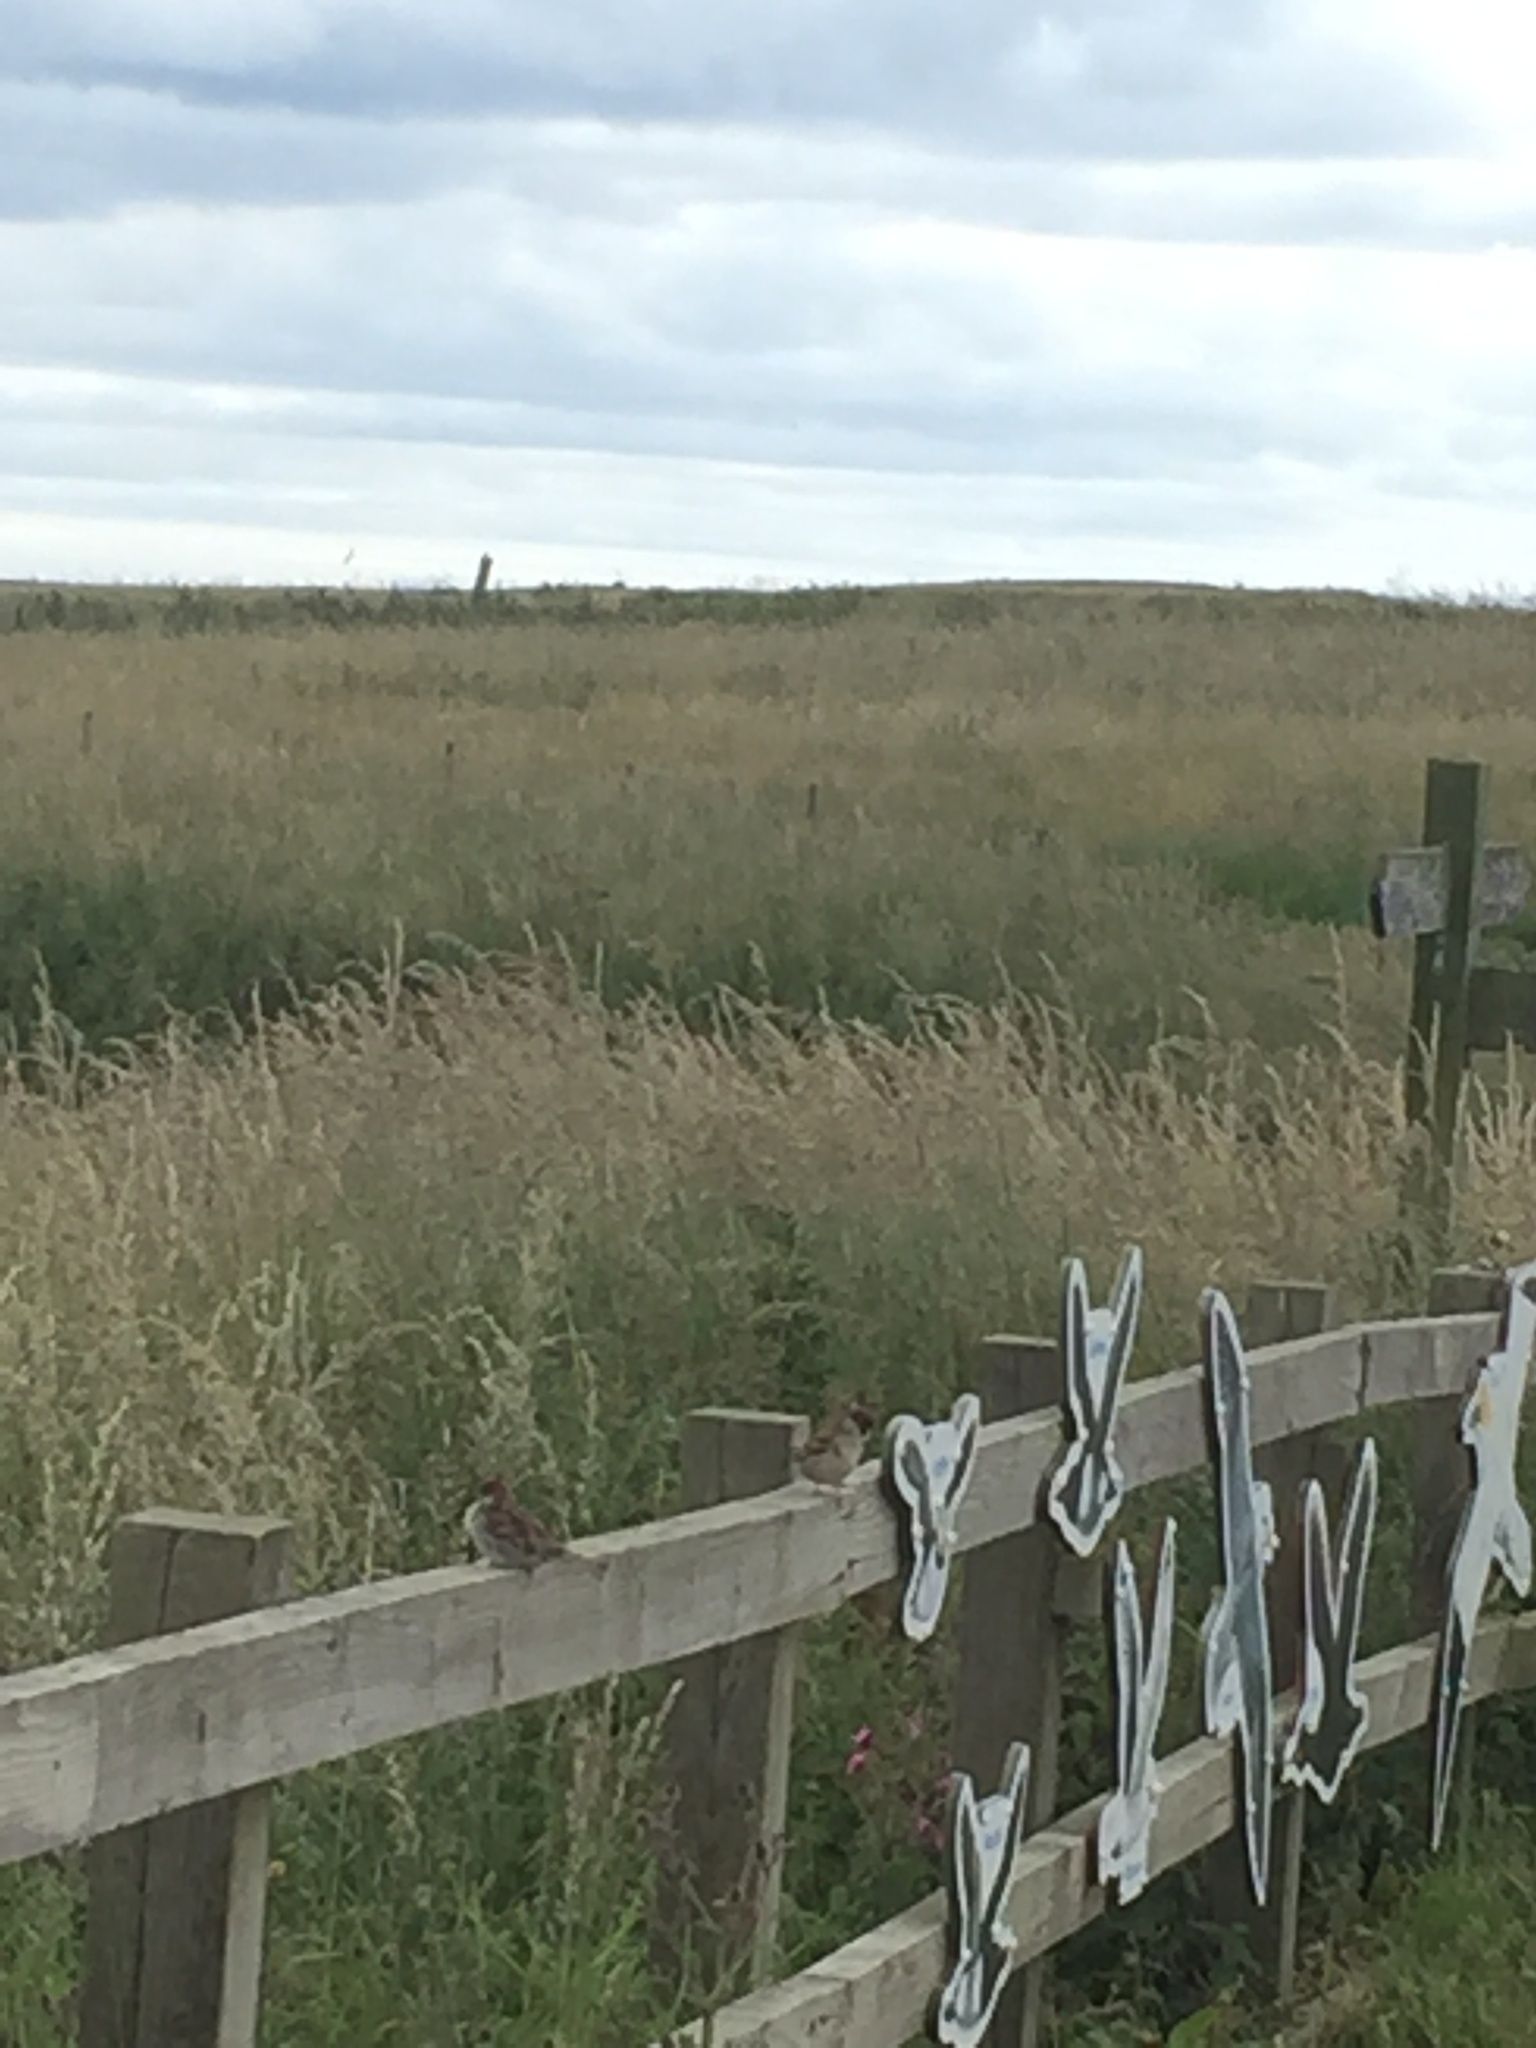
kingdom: Animalia
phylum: Chordata
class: Aves
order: Passeriformes
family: Passeridae
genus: Passer
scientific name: Passer montanus
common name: Eurasian tree sparrow
